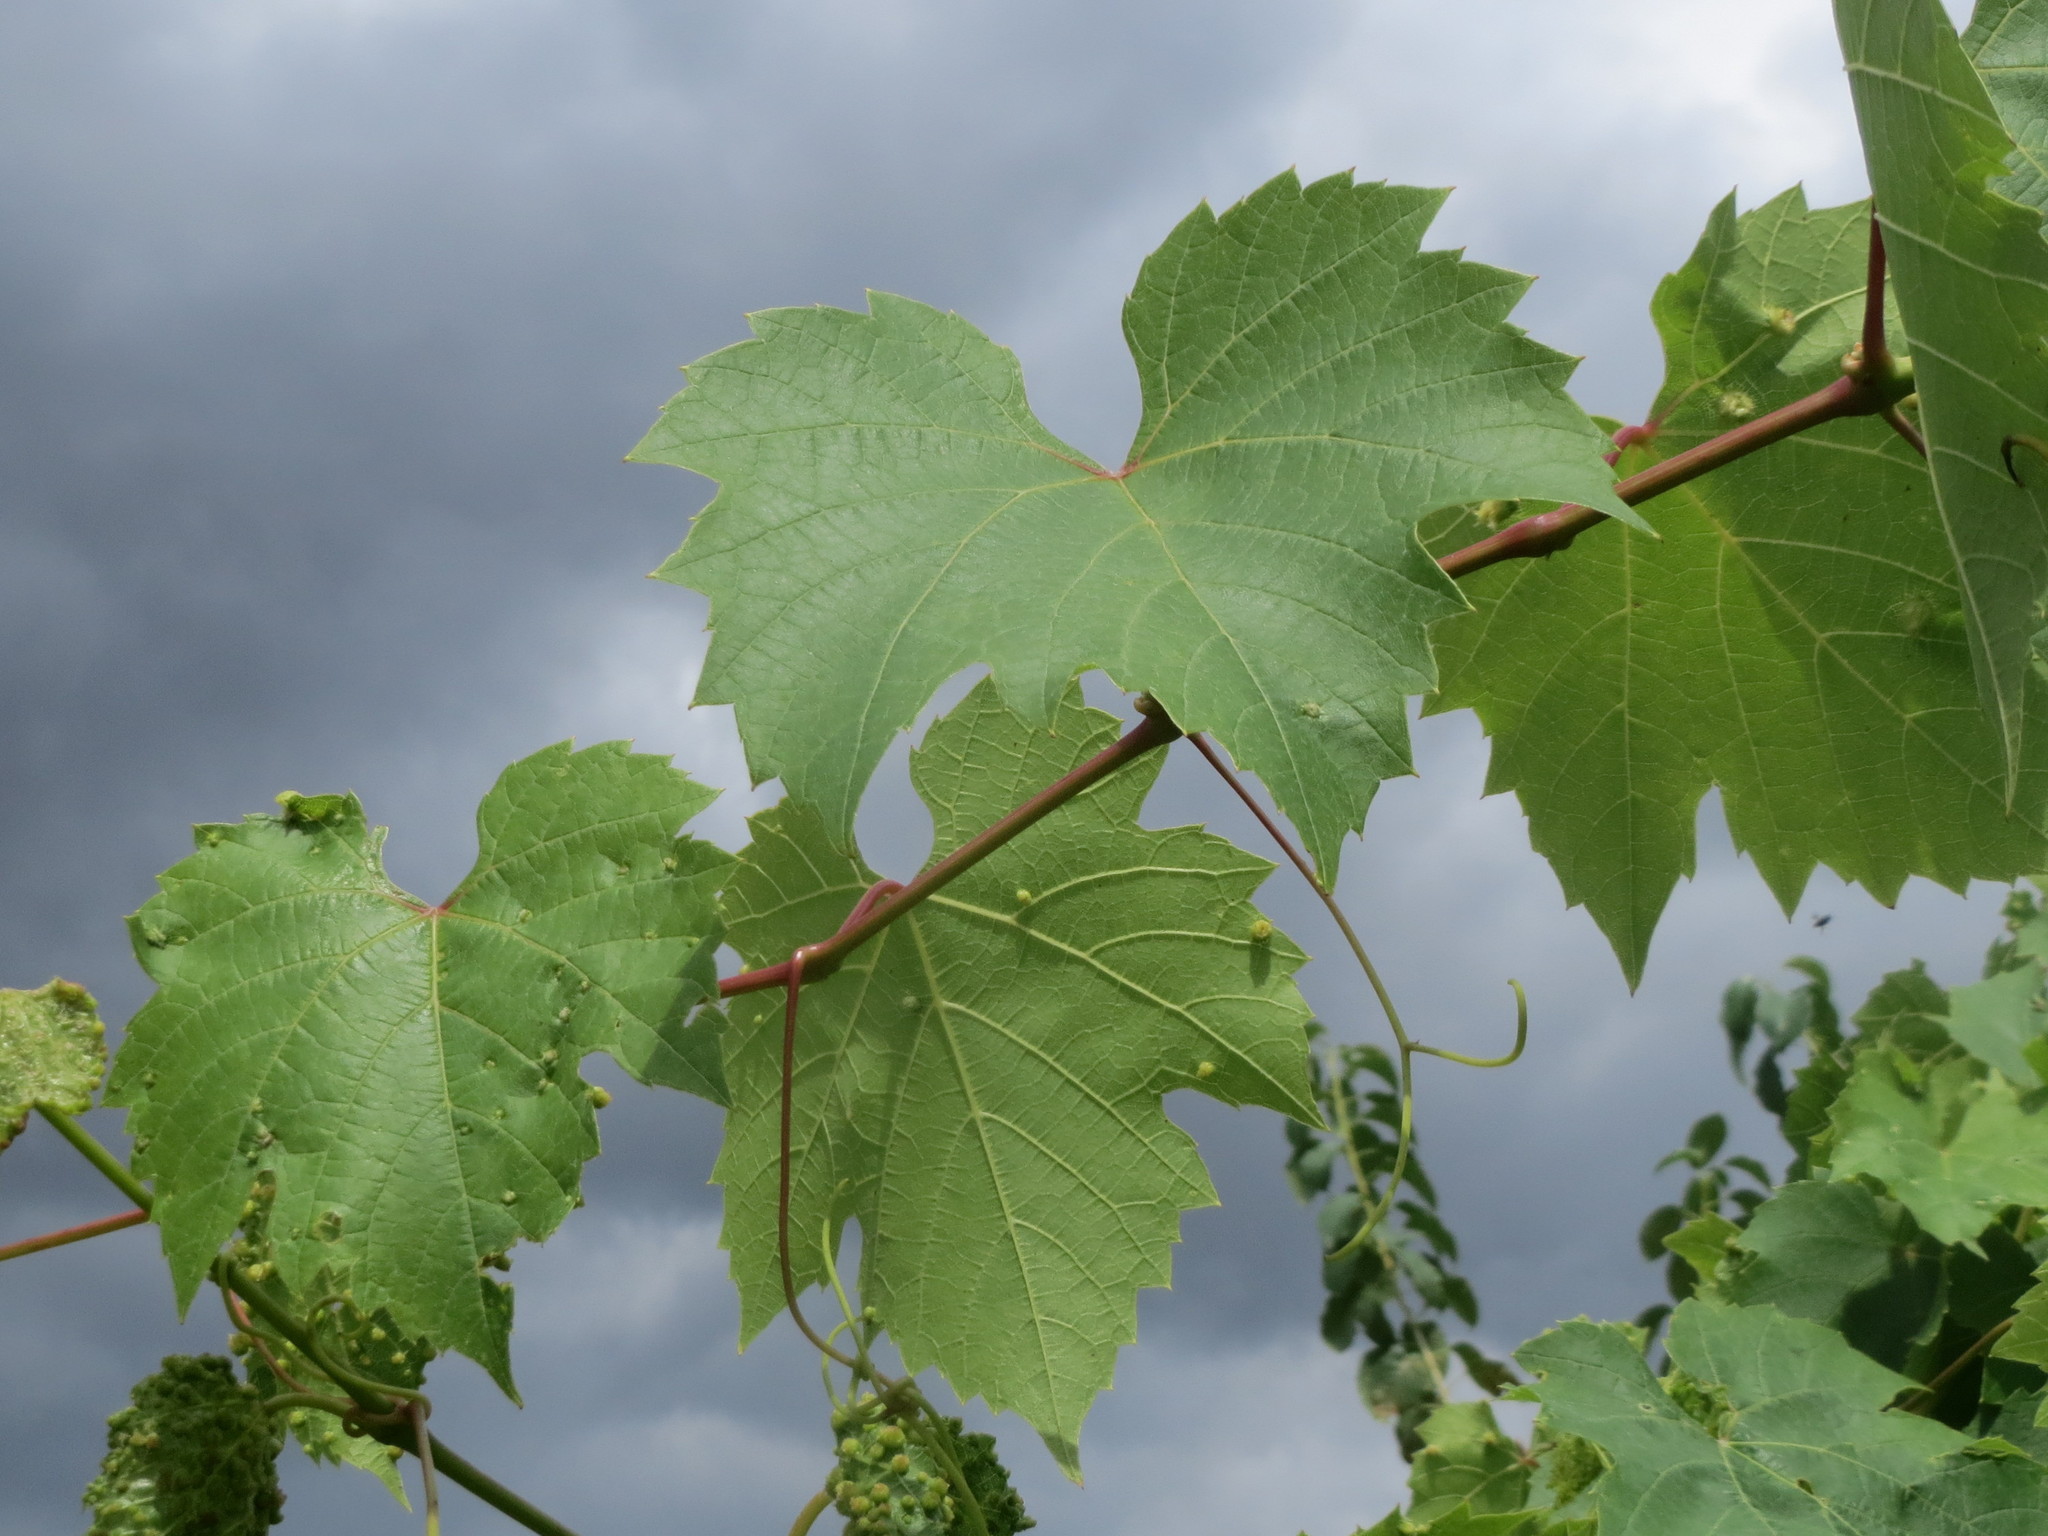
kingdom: Plantae
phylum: Tracheophyta
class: Magnoliopsida
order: Vitales
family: Vitaceae
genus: Vitis
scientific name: Vitis vinifera
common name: Grape-vine
